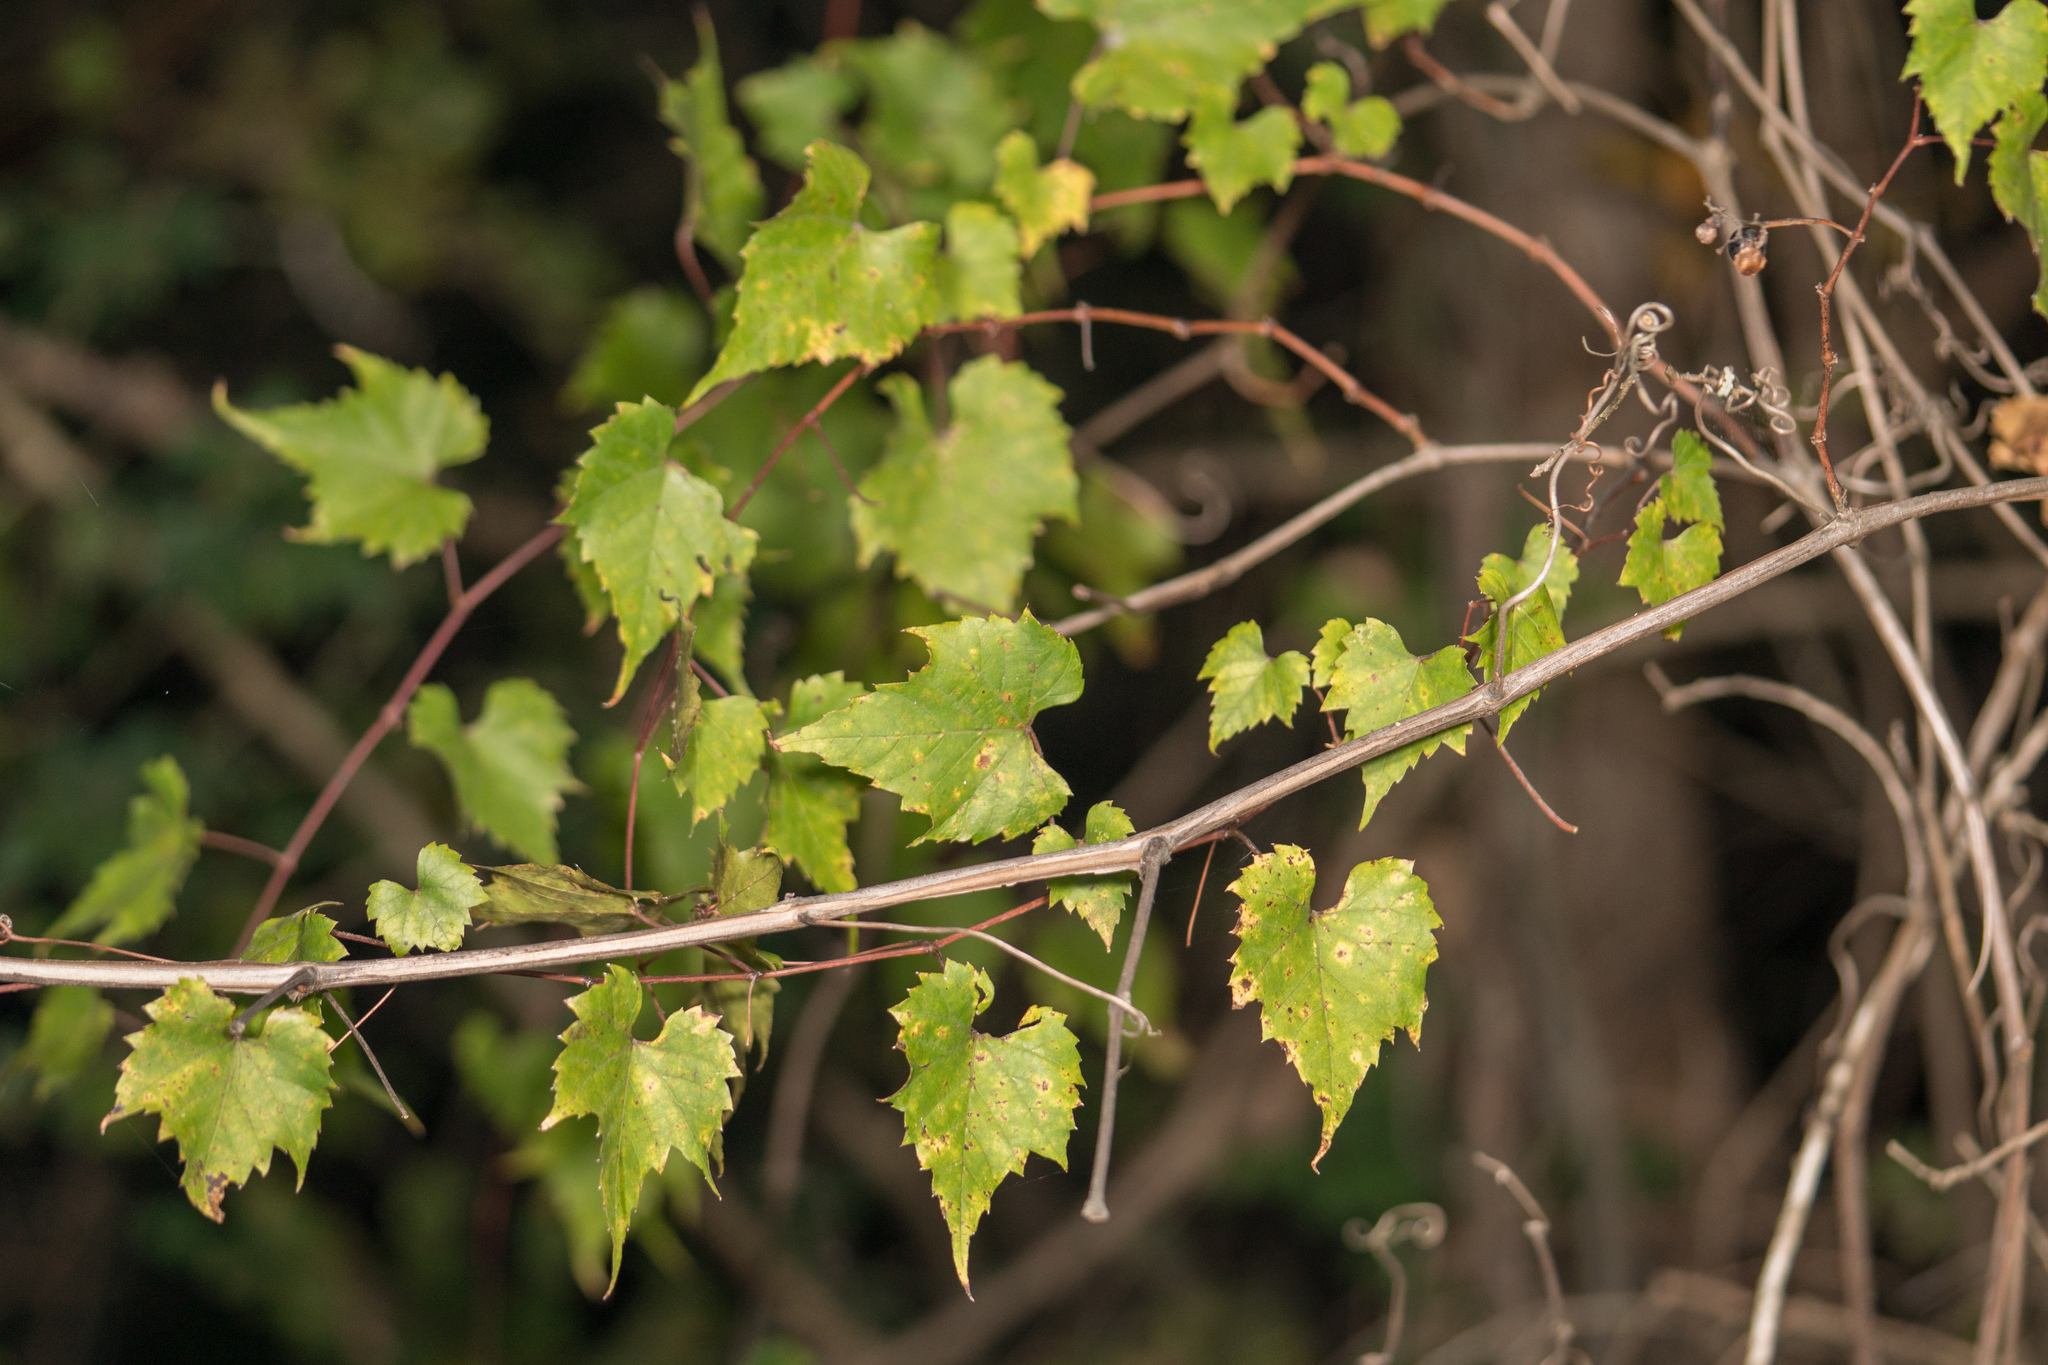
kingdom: Plantae
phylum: Tracheophyta
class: Magnoliopsida
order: Vitales
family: Vitaceae
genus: Ampelopsis
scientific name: Ampelopsis cordata
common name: Heart-leaf ampelopsis
